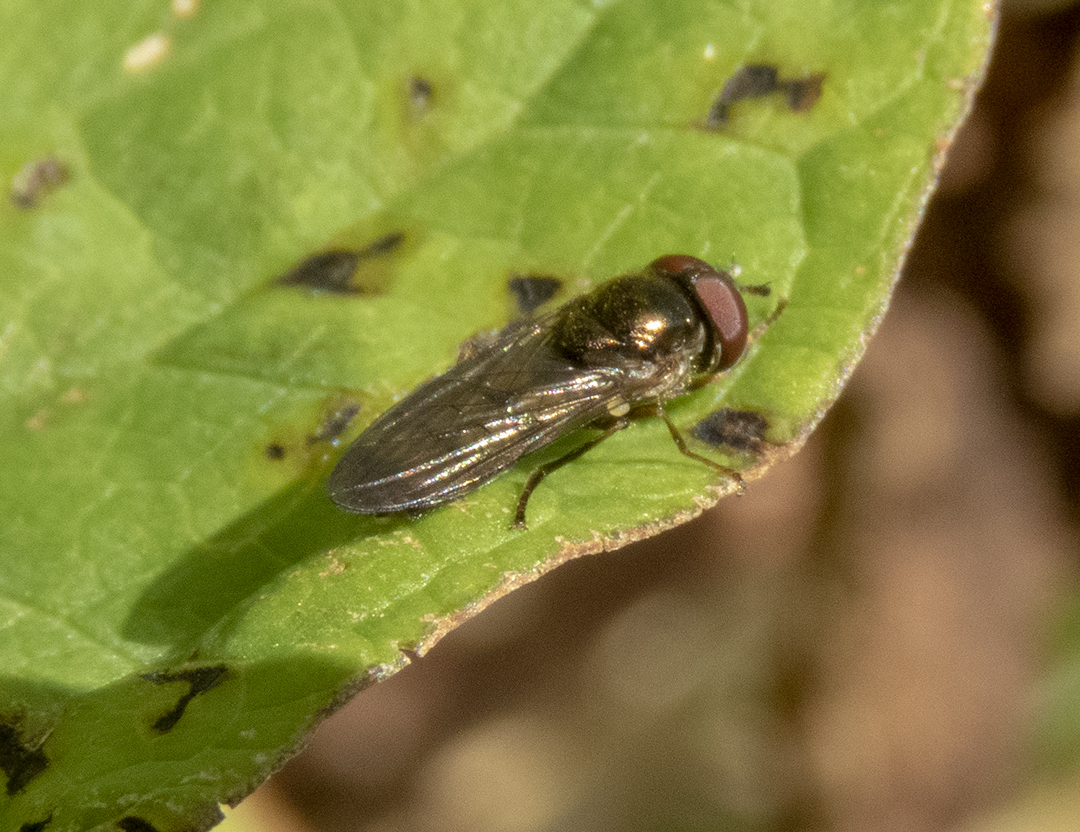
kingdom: Animalia
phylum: Arthropoda
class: Insecta
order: Diptera
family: Syrphidae
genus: Melanostoma
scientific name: Melanostoma fasciatum
